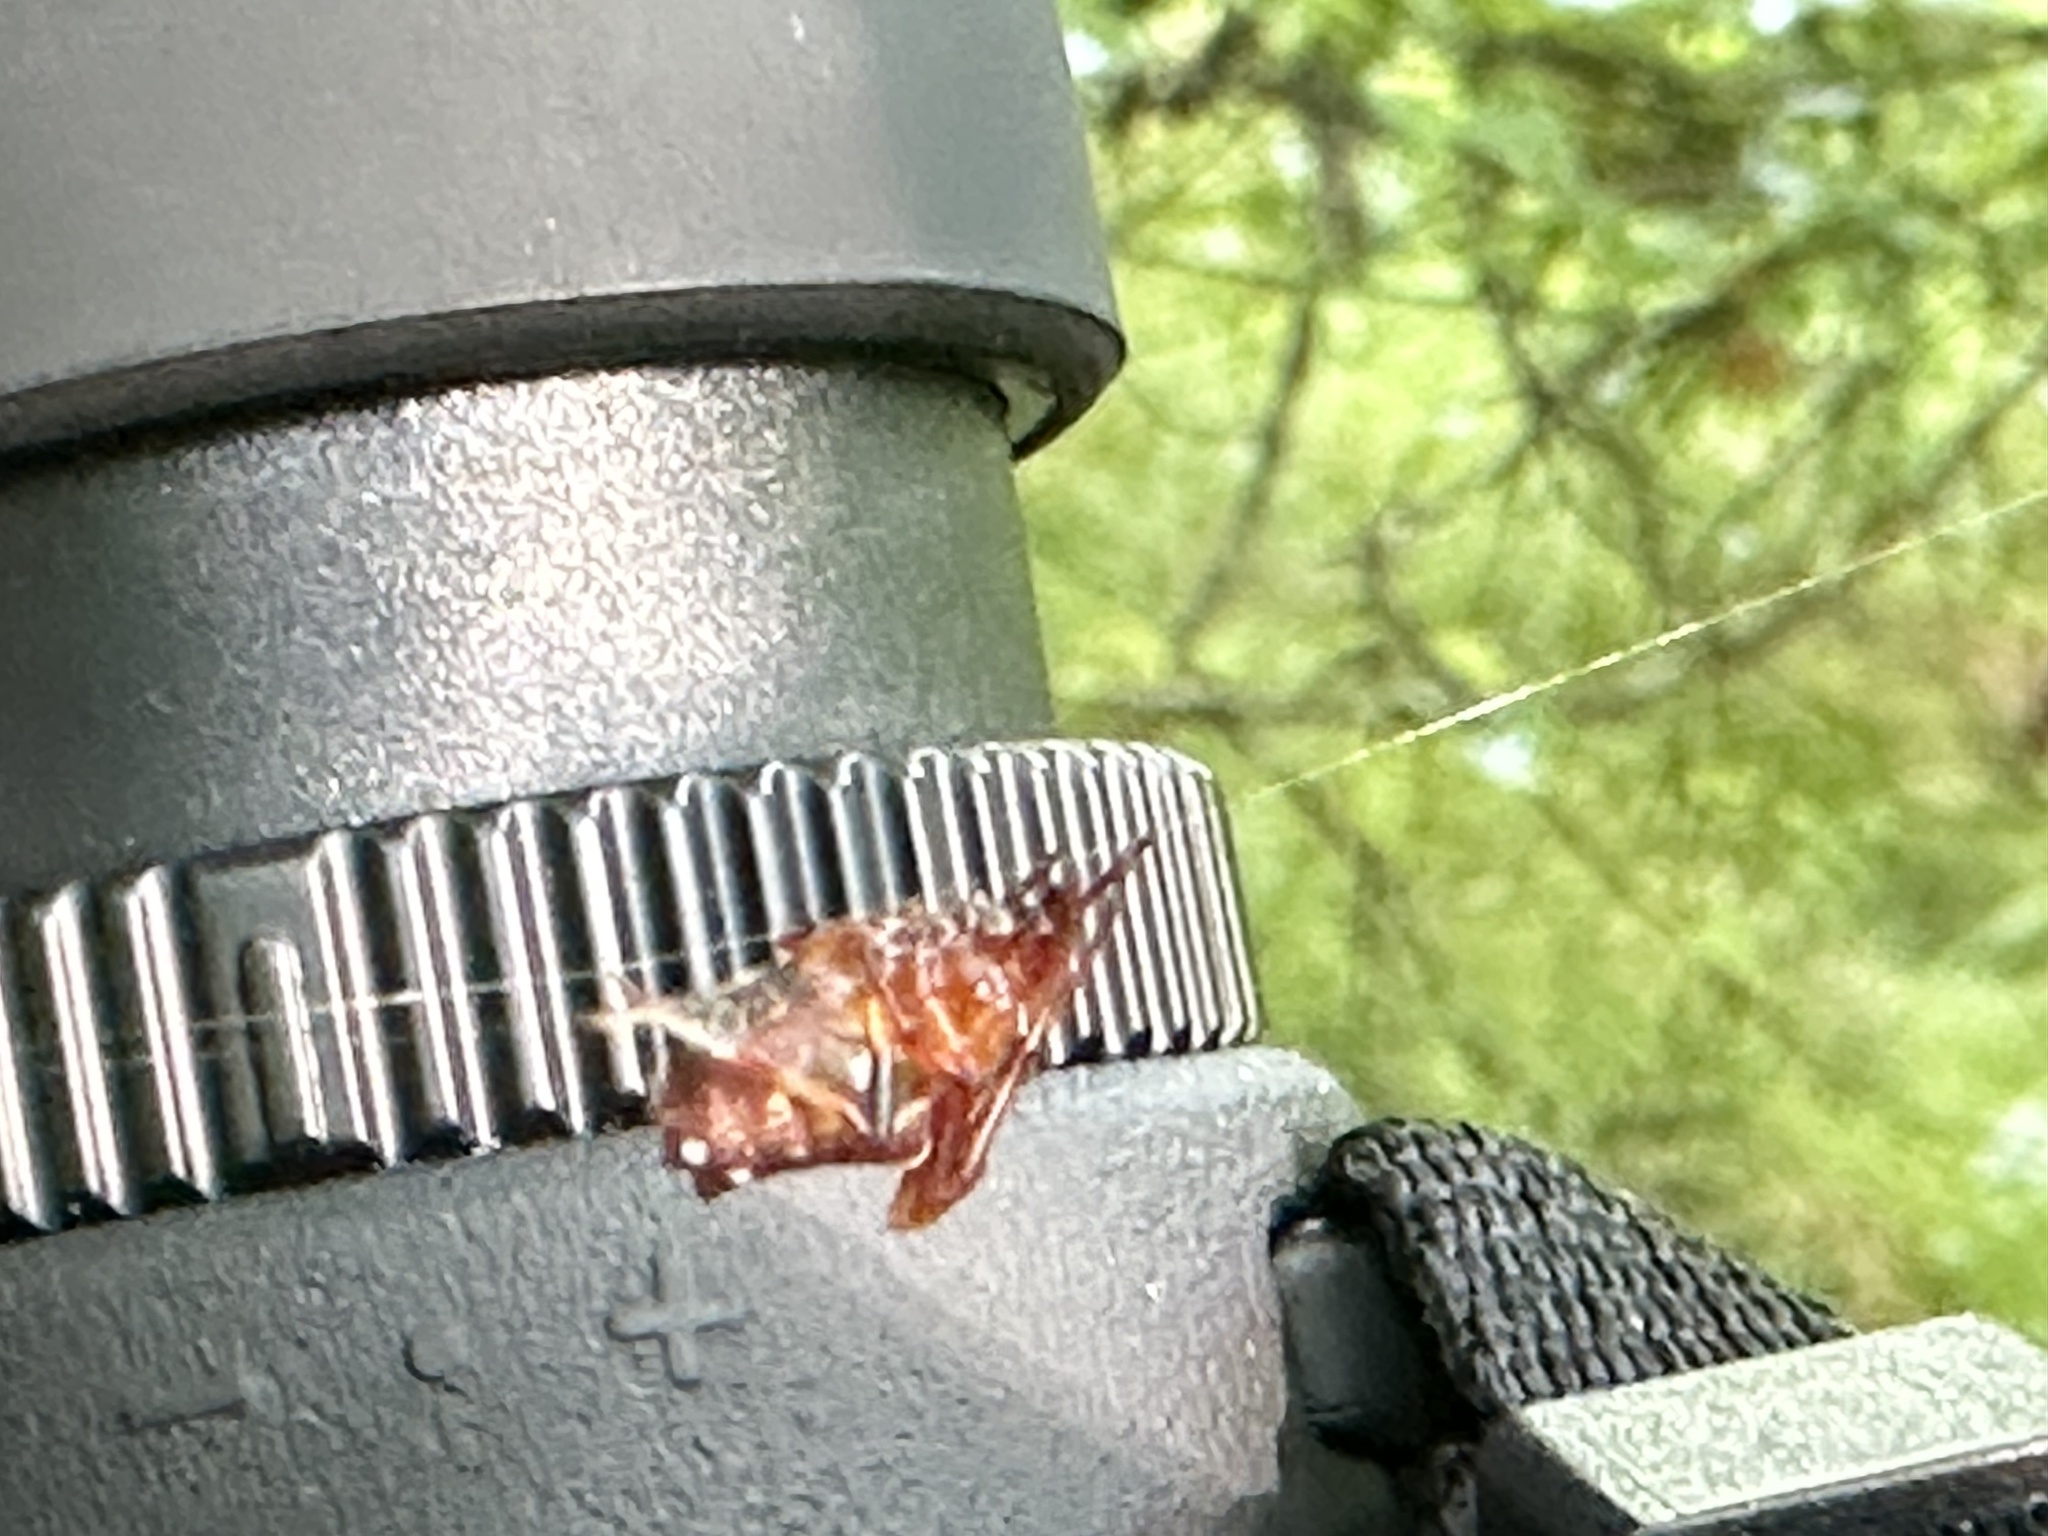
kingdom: Animalia
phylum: Arthropoda
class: Arachnida
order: Araneae
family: Araneidae
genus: Verrucosa
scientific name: Verrucosa arenata
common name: Orb weavers
